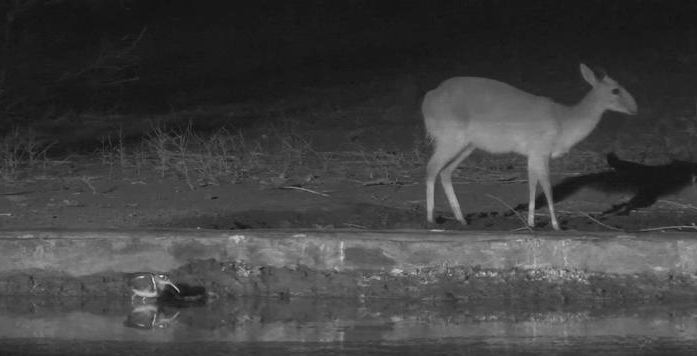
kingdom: Animalia
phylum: Chordata
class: Aves
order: Charadriiformes
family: Rostratulidae
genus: Rostratula
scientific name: Rostratula benghalensis
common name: Greater painted-snipe
